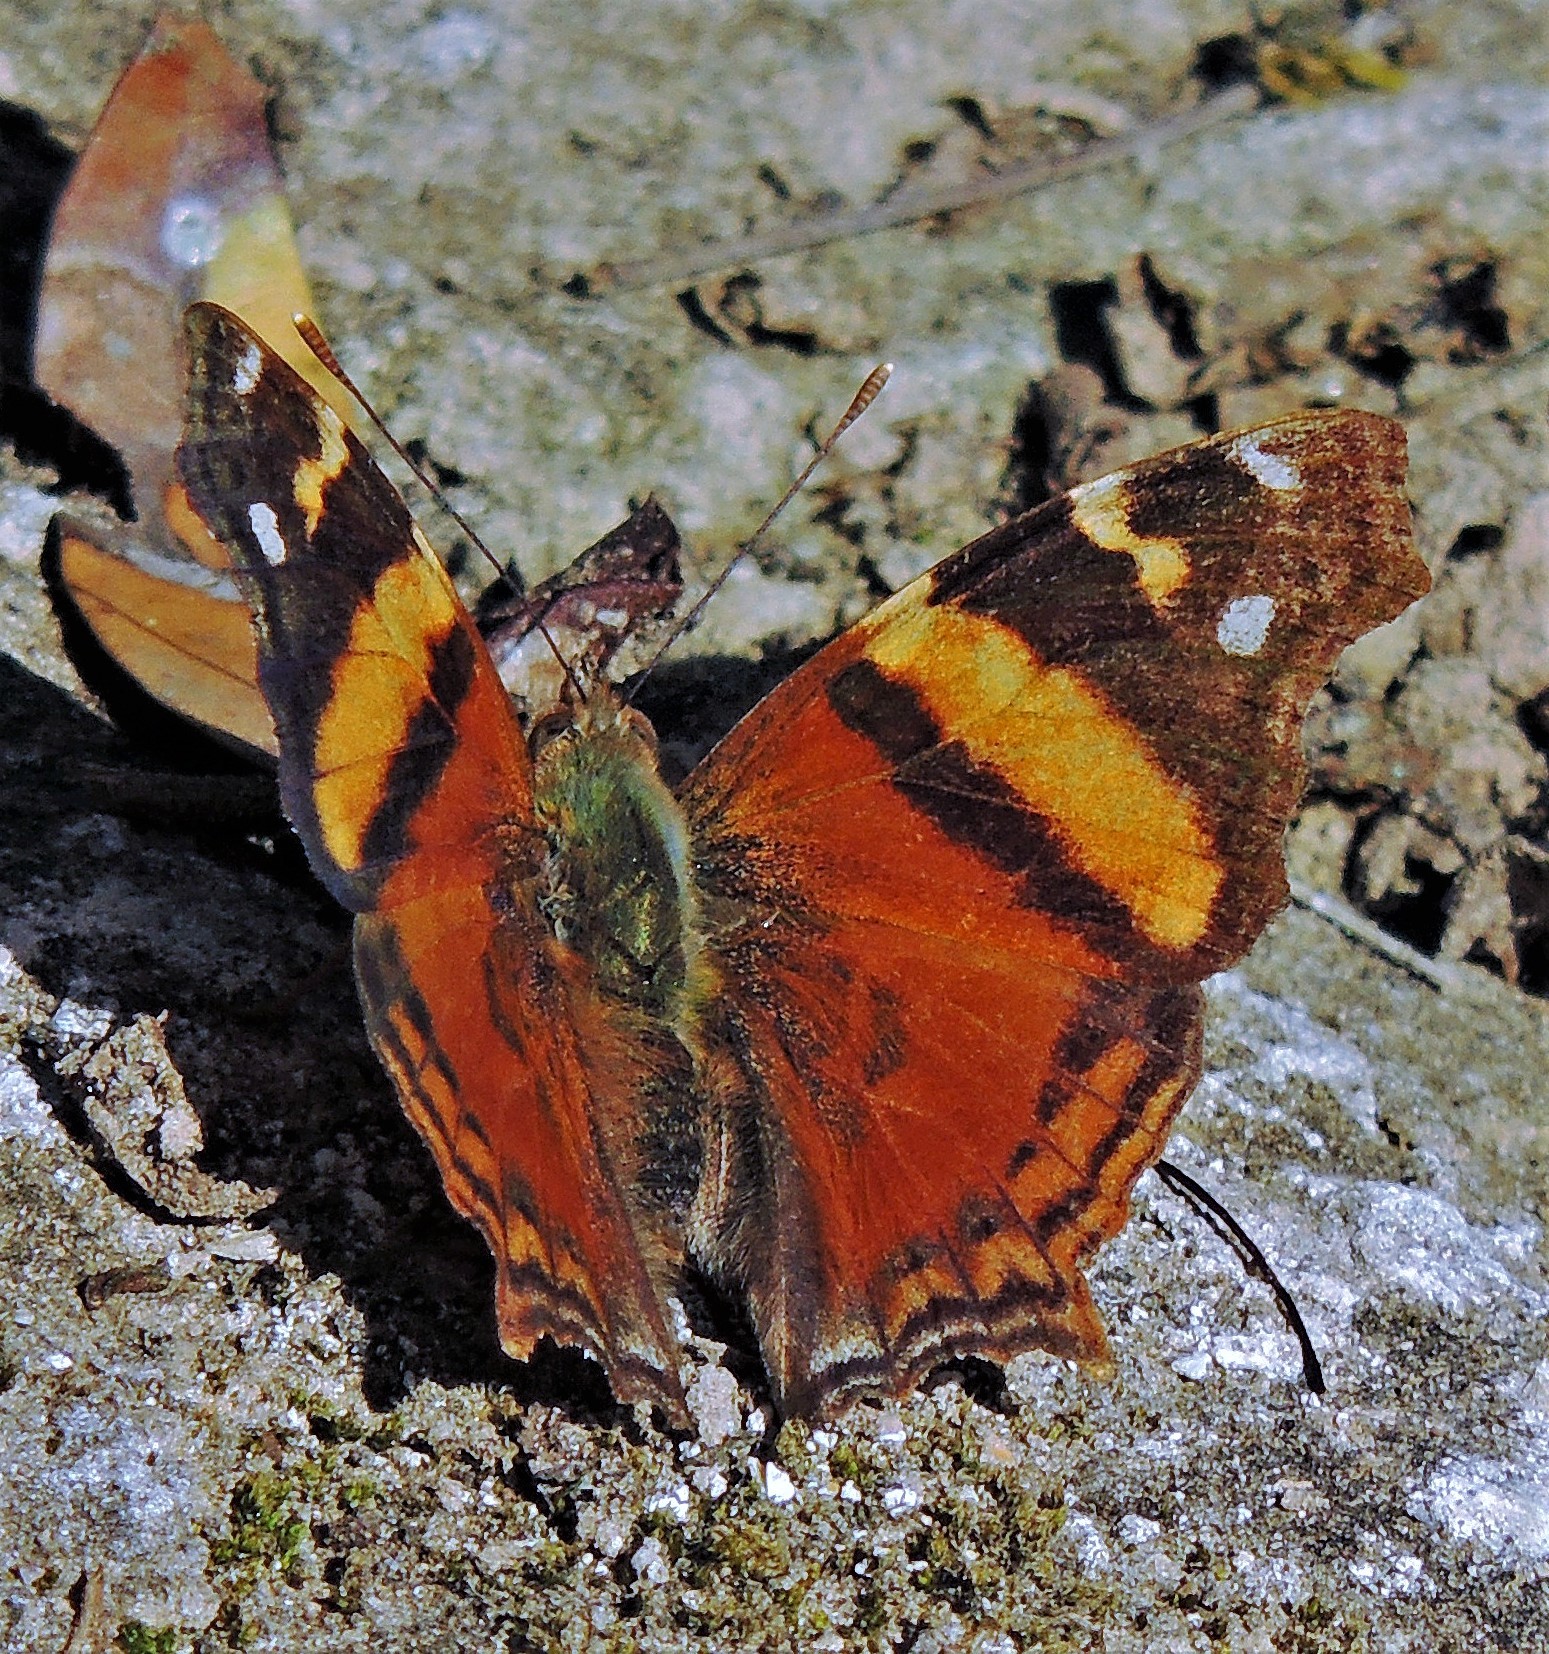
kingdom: Animalia
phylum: Arthropoda
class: Insecta
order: Lepidoptera
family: Nymphalidae
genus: Hypanartia
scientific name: Hypanartia bella
